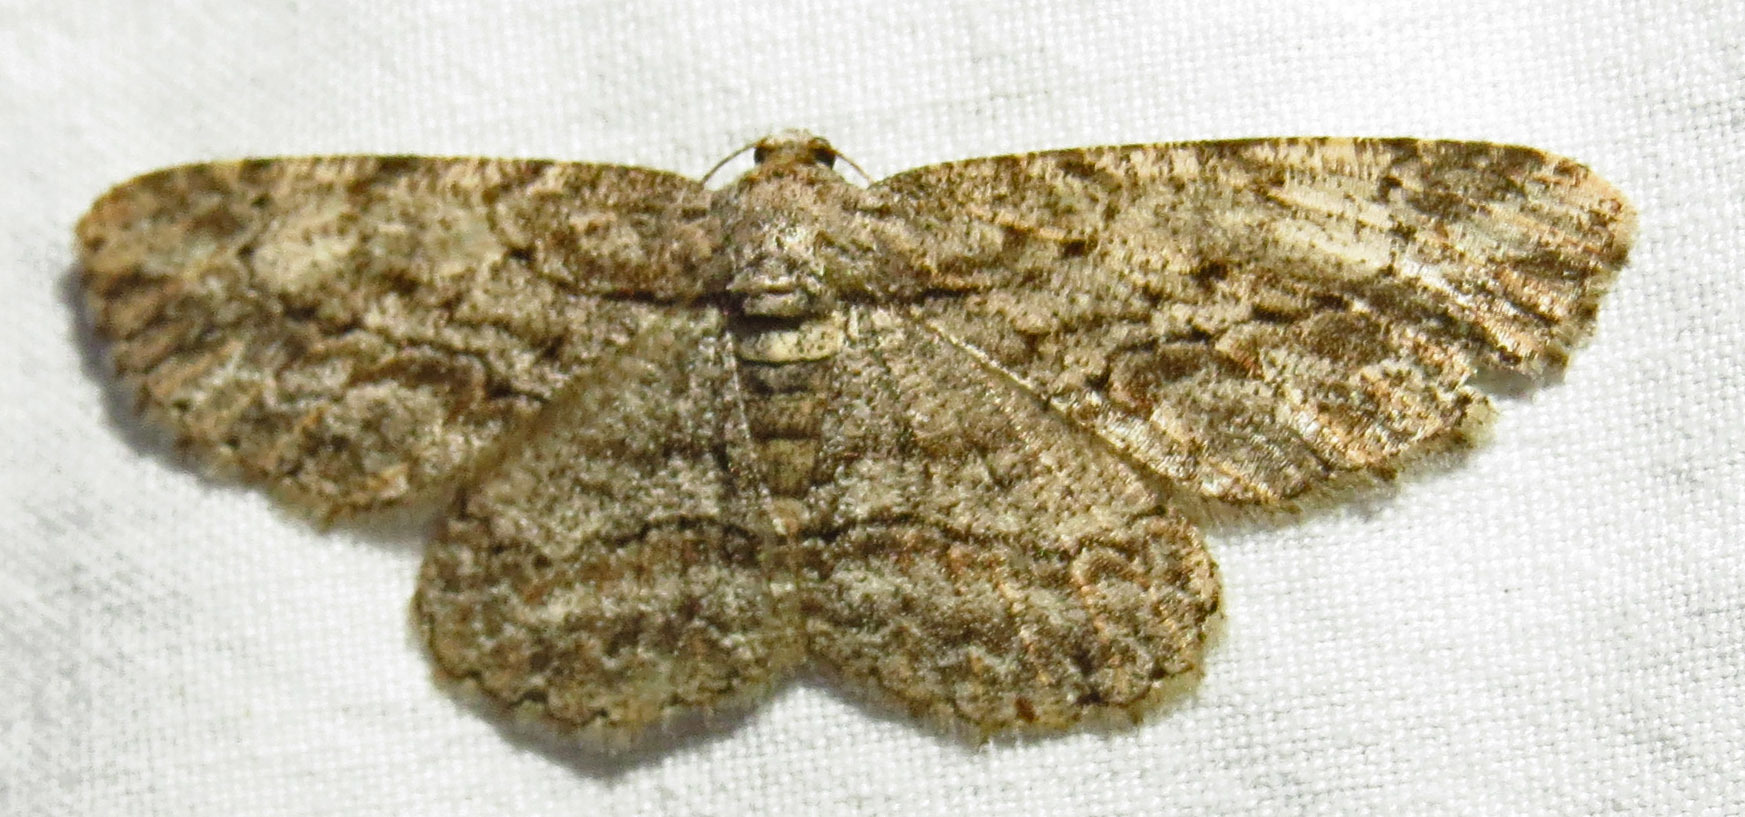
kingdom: Animalia
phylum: Arthropoda
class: Insecta
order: Lepidoptera
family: Geometridae
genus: Anavitrinella
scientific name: Anavitrinella pampinaria
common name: Common gray
